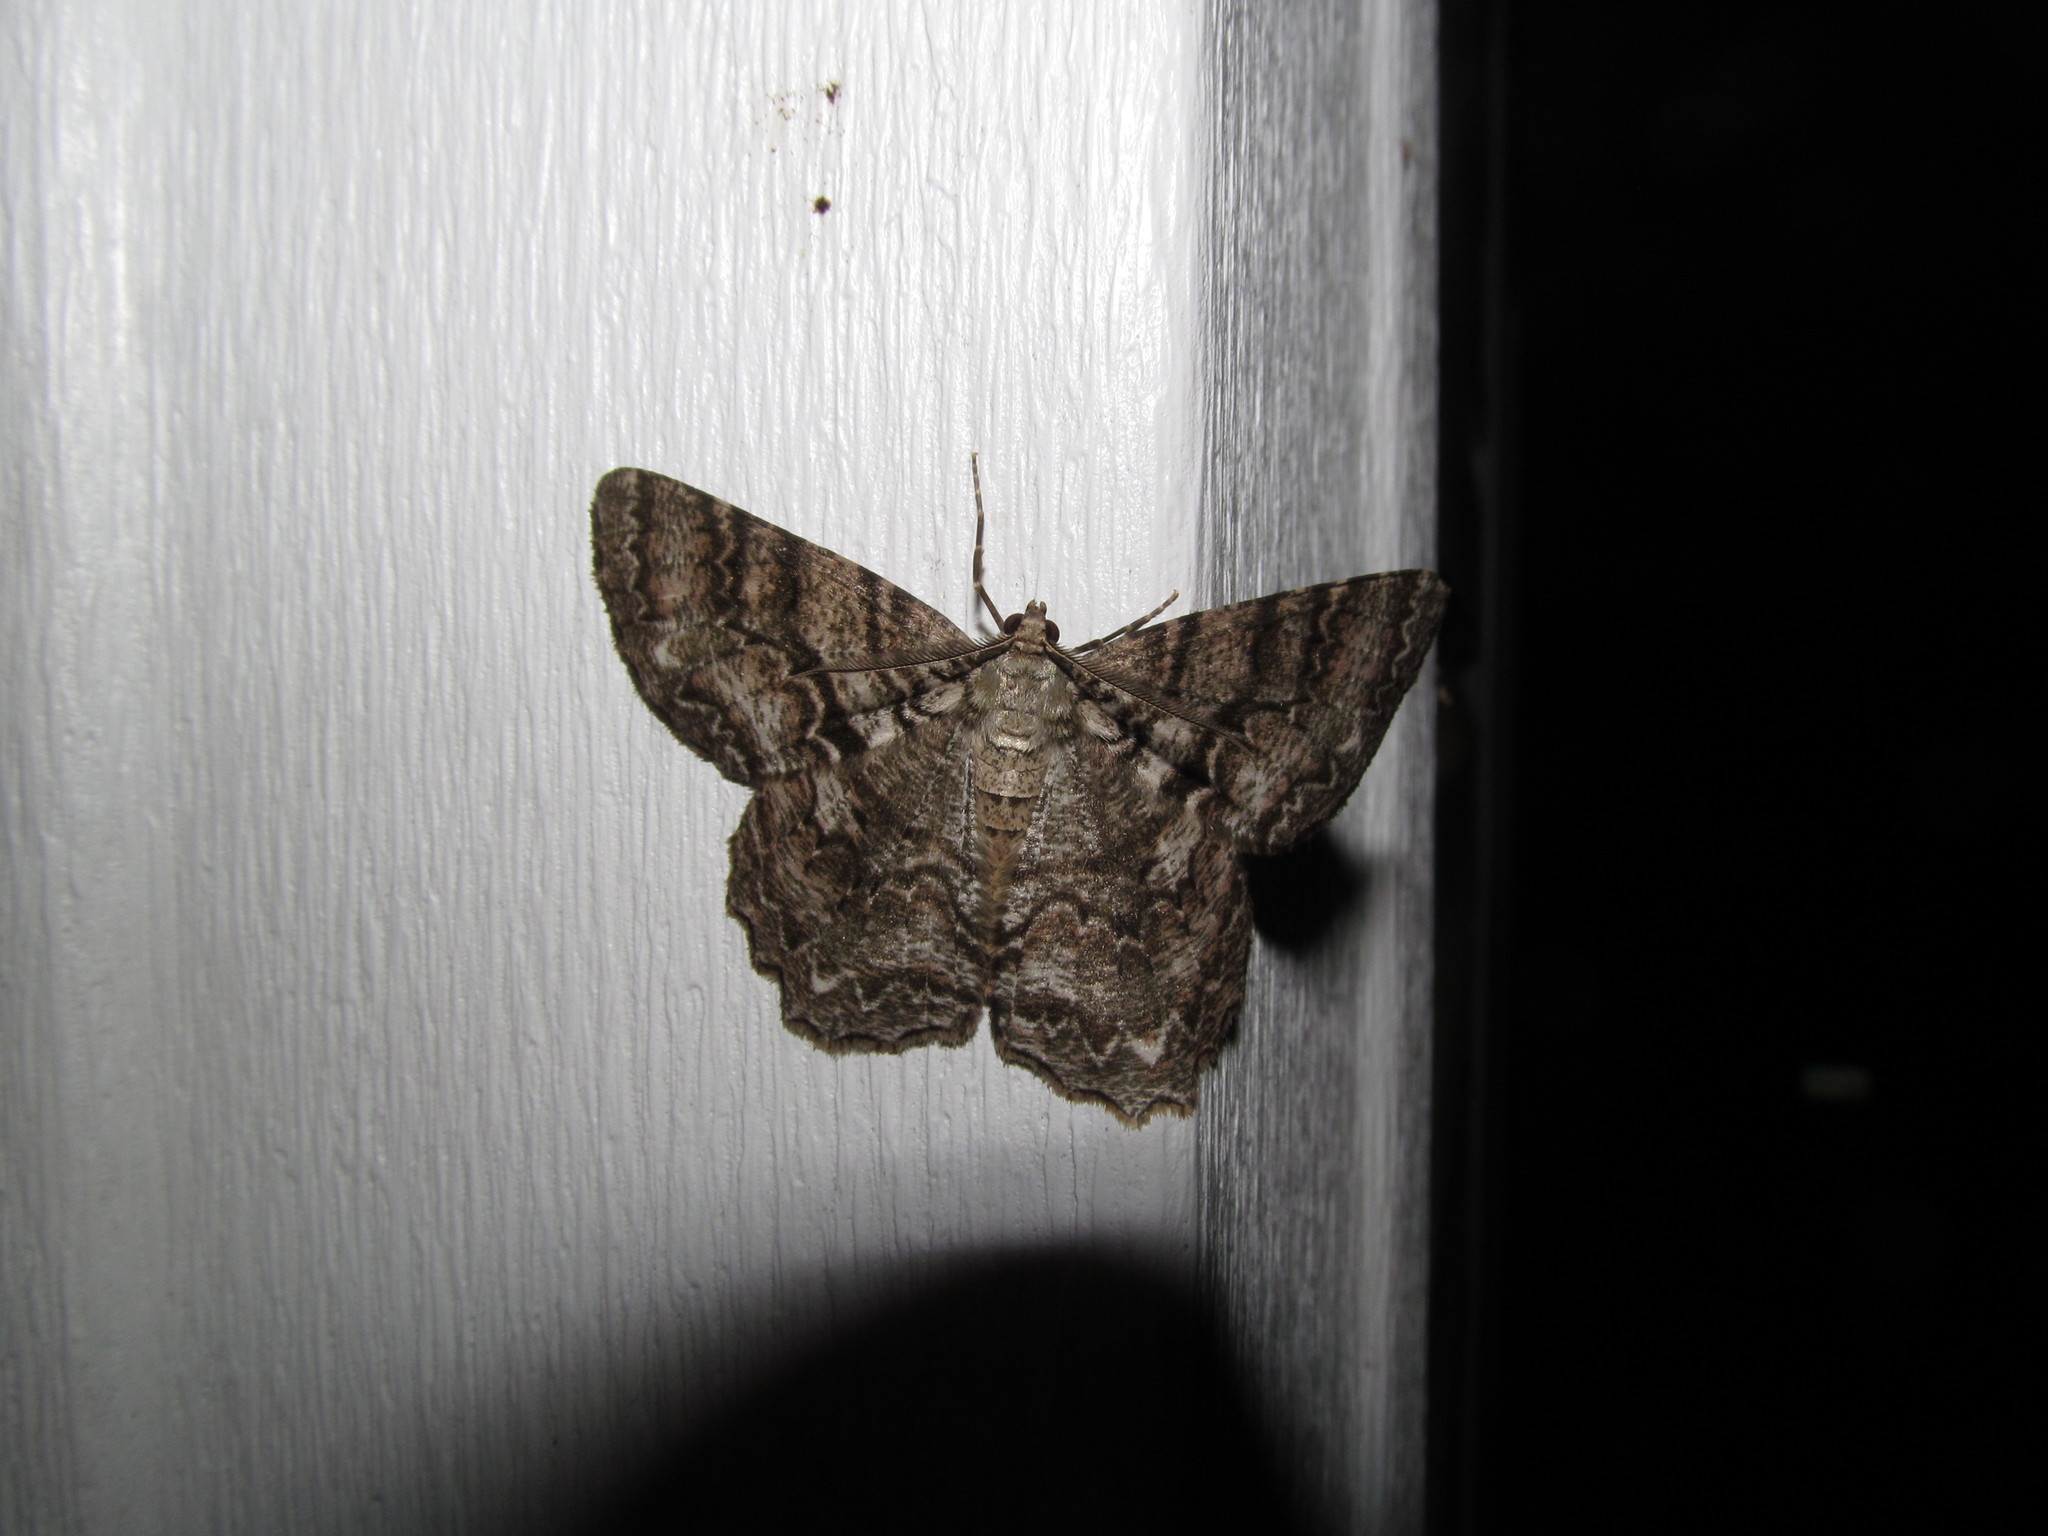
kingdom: Animalia
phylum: Arthropoda
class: Insecta
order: Lepidoptera
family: Geometridae
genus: Epimecis
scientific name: Epimecis hortaria
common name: Tulip-tree beauty
